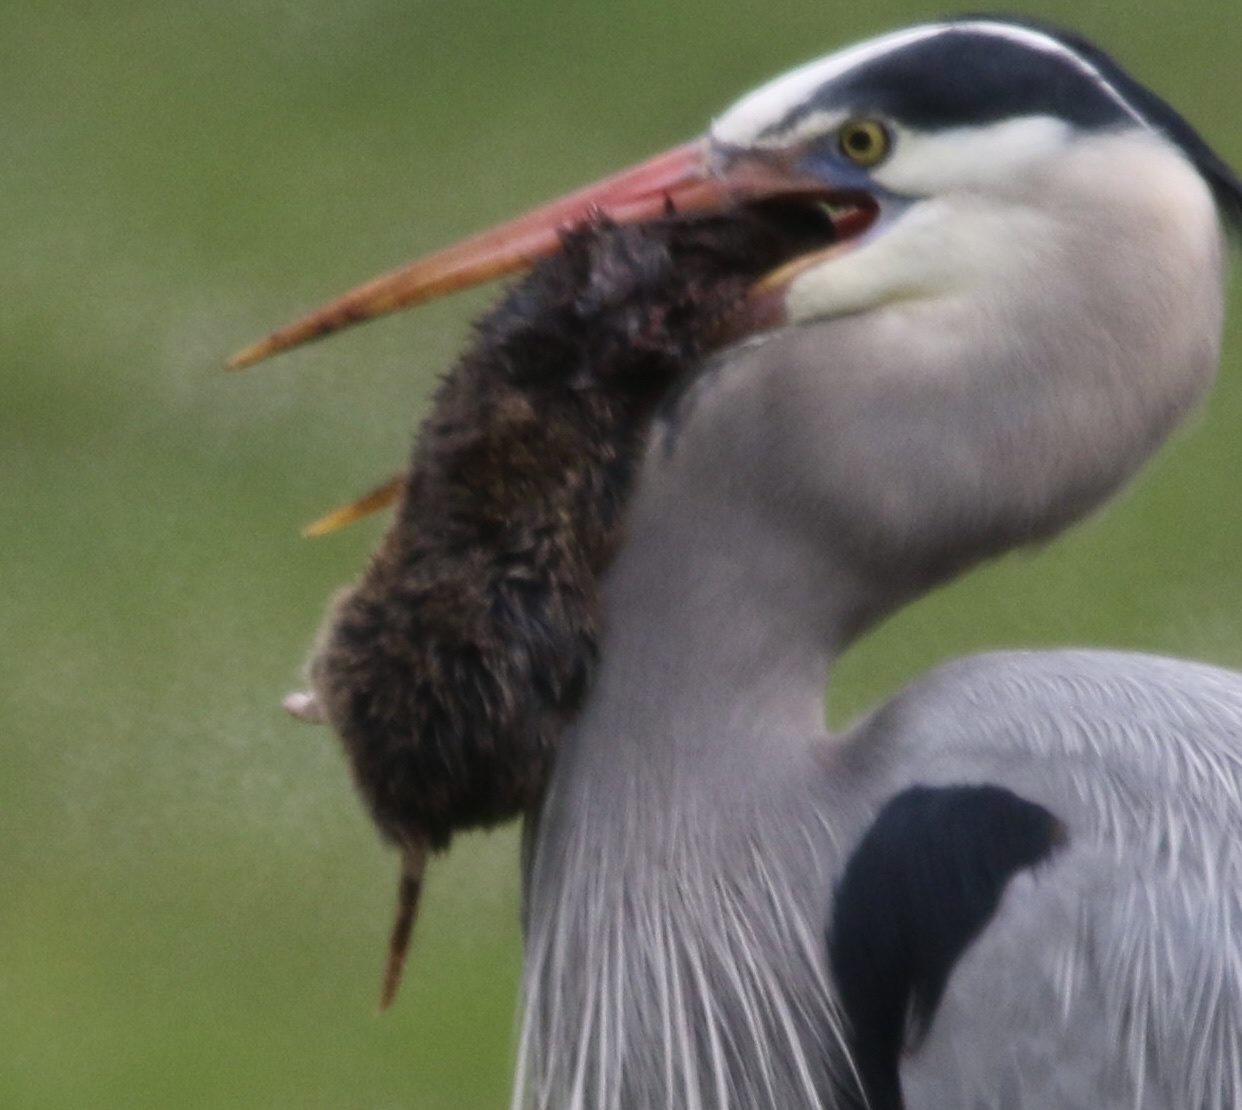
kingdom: Animalia
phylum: Chordata
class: Mammalia
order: Rodentia
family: Geomyidae
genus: Thomomys
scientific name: Thomomys bottae
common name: Botta's pocket gopher
